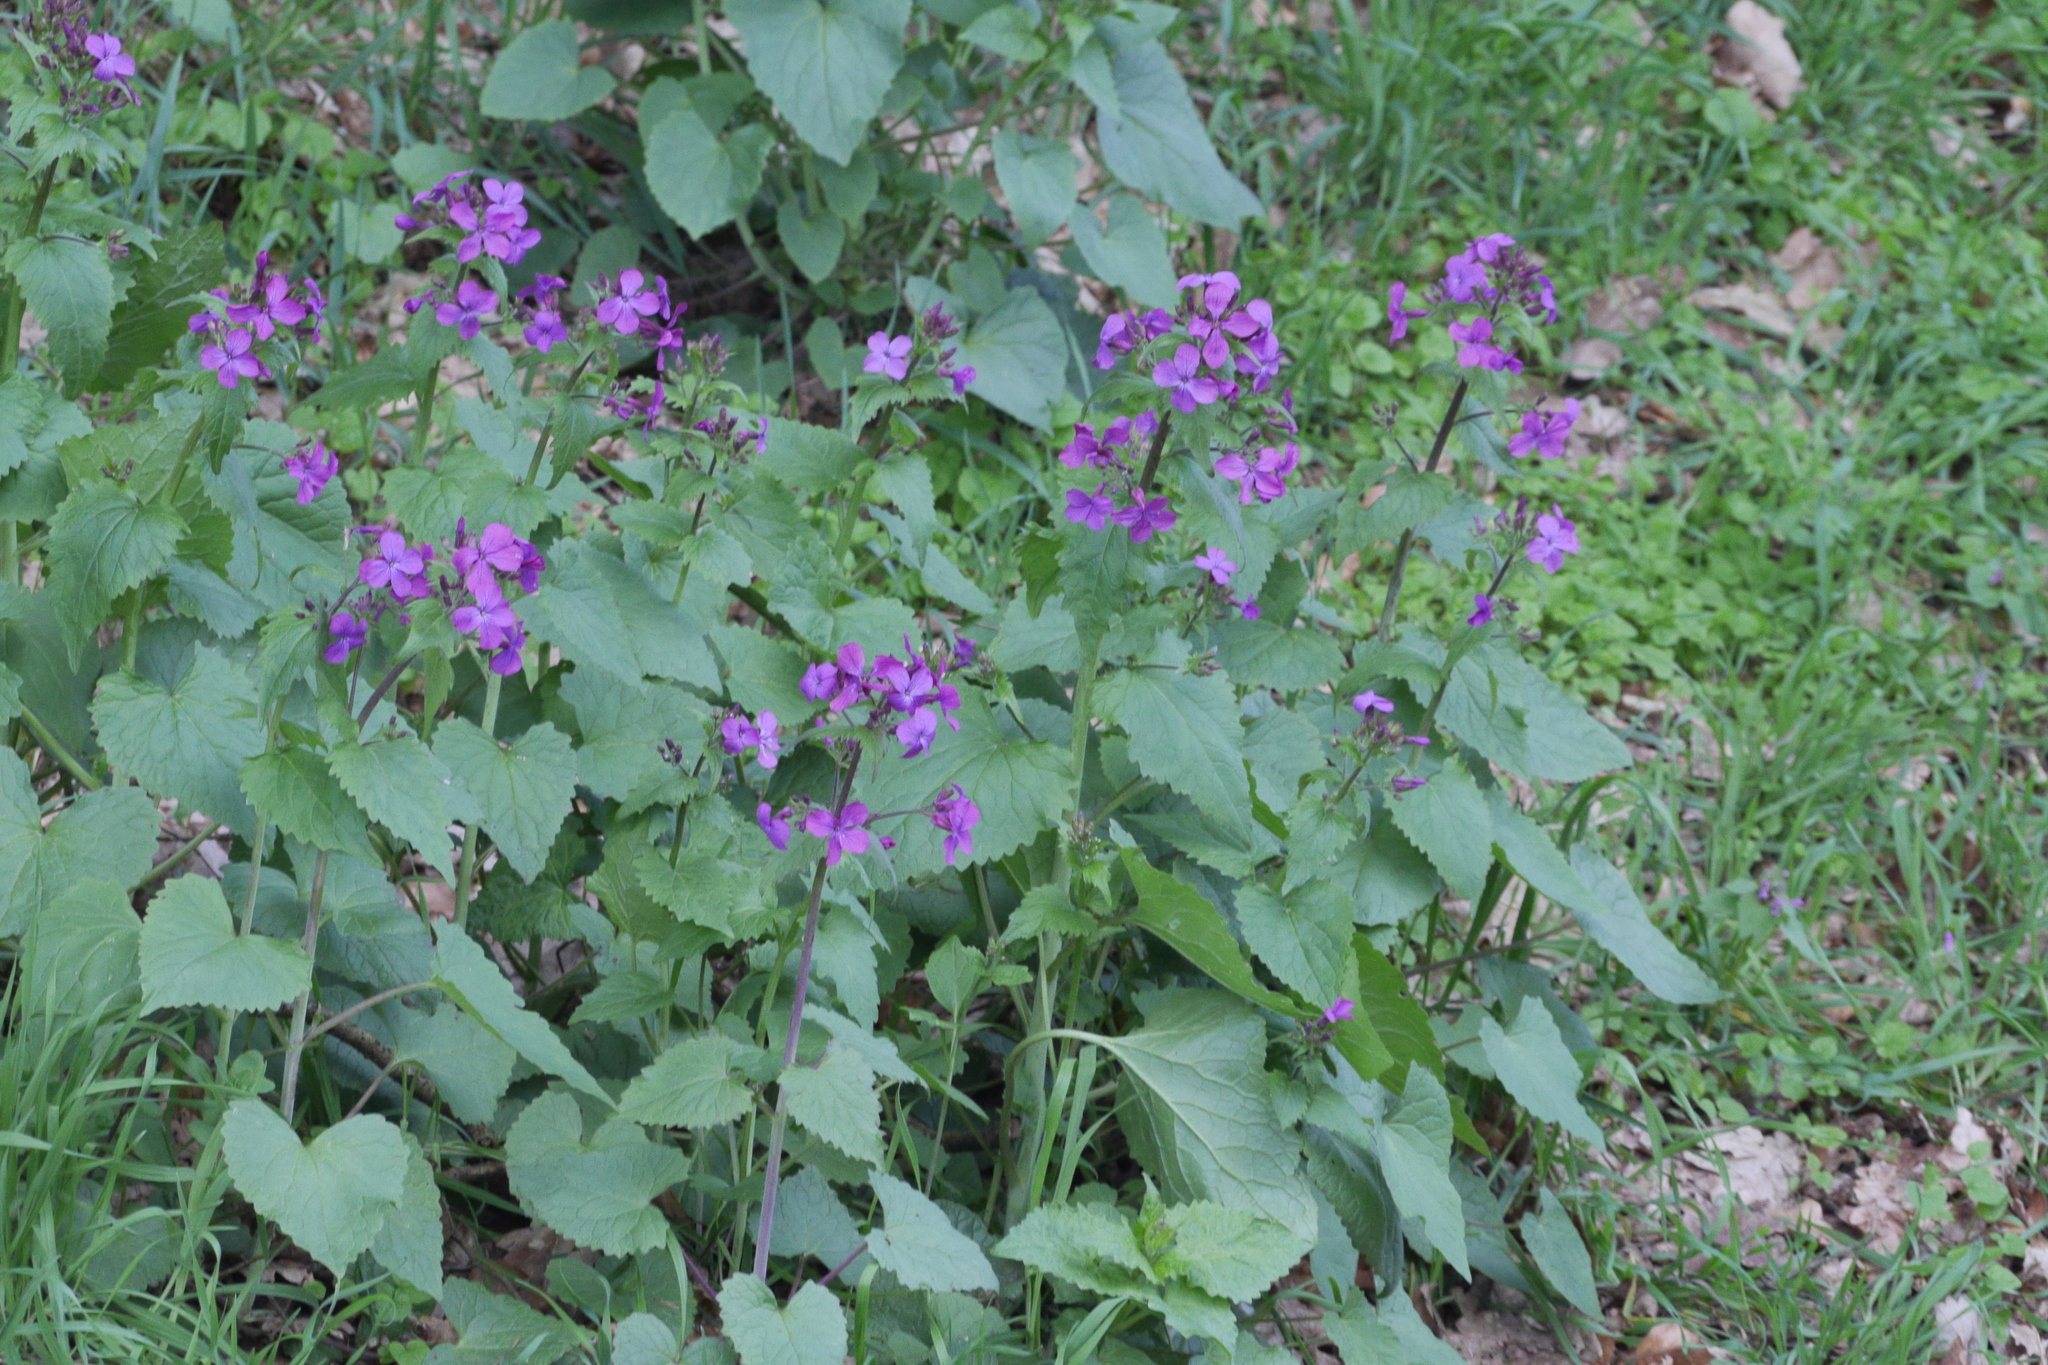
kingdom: Plantae
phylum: Tracheophyta
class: Magnoliopsida
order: Brassicales
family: Brassicaceae
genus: Lunaria
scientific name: Lunaria annua
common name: Honesty
